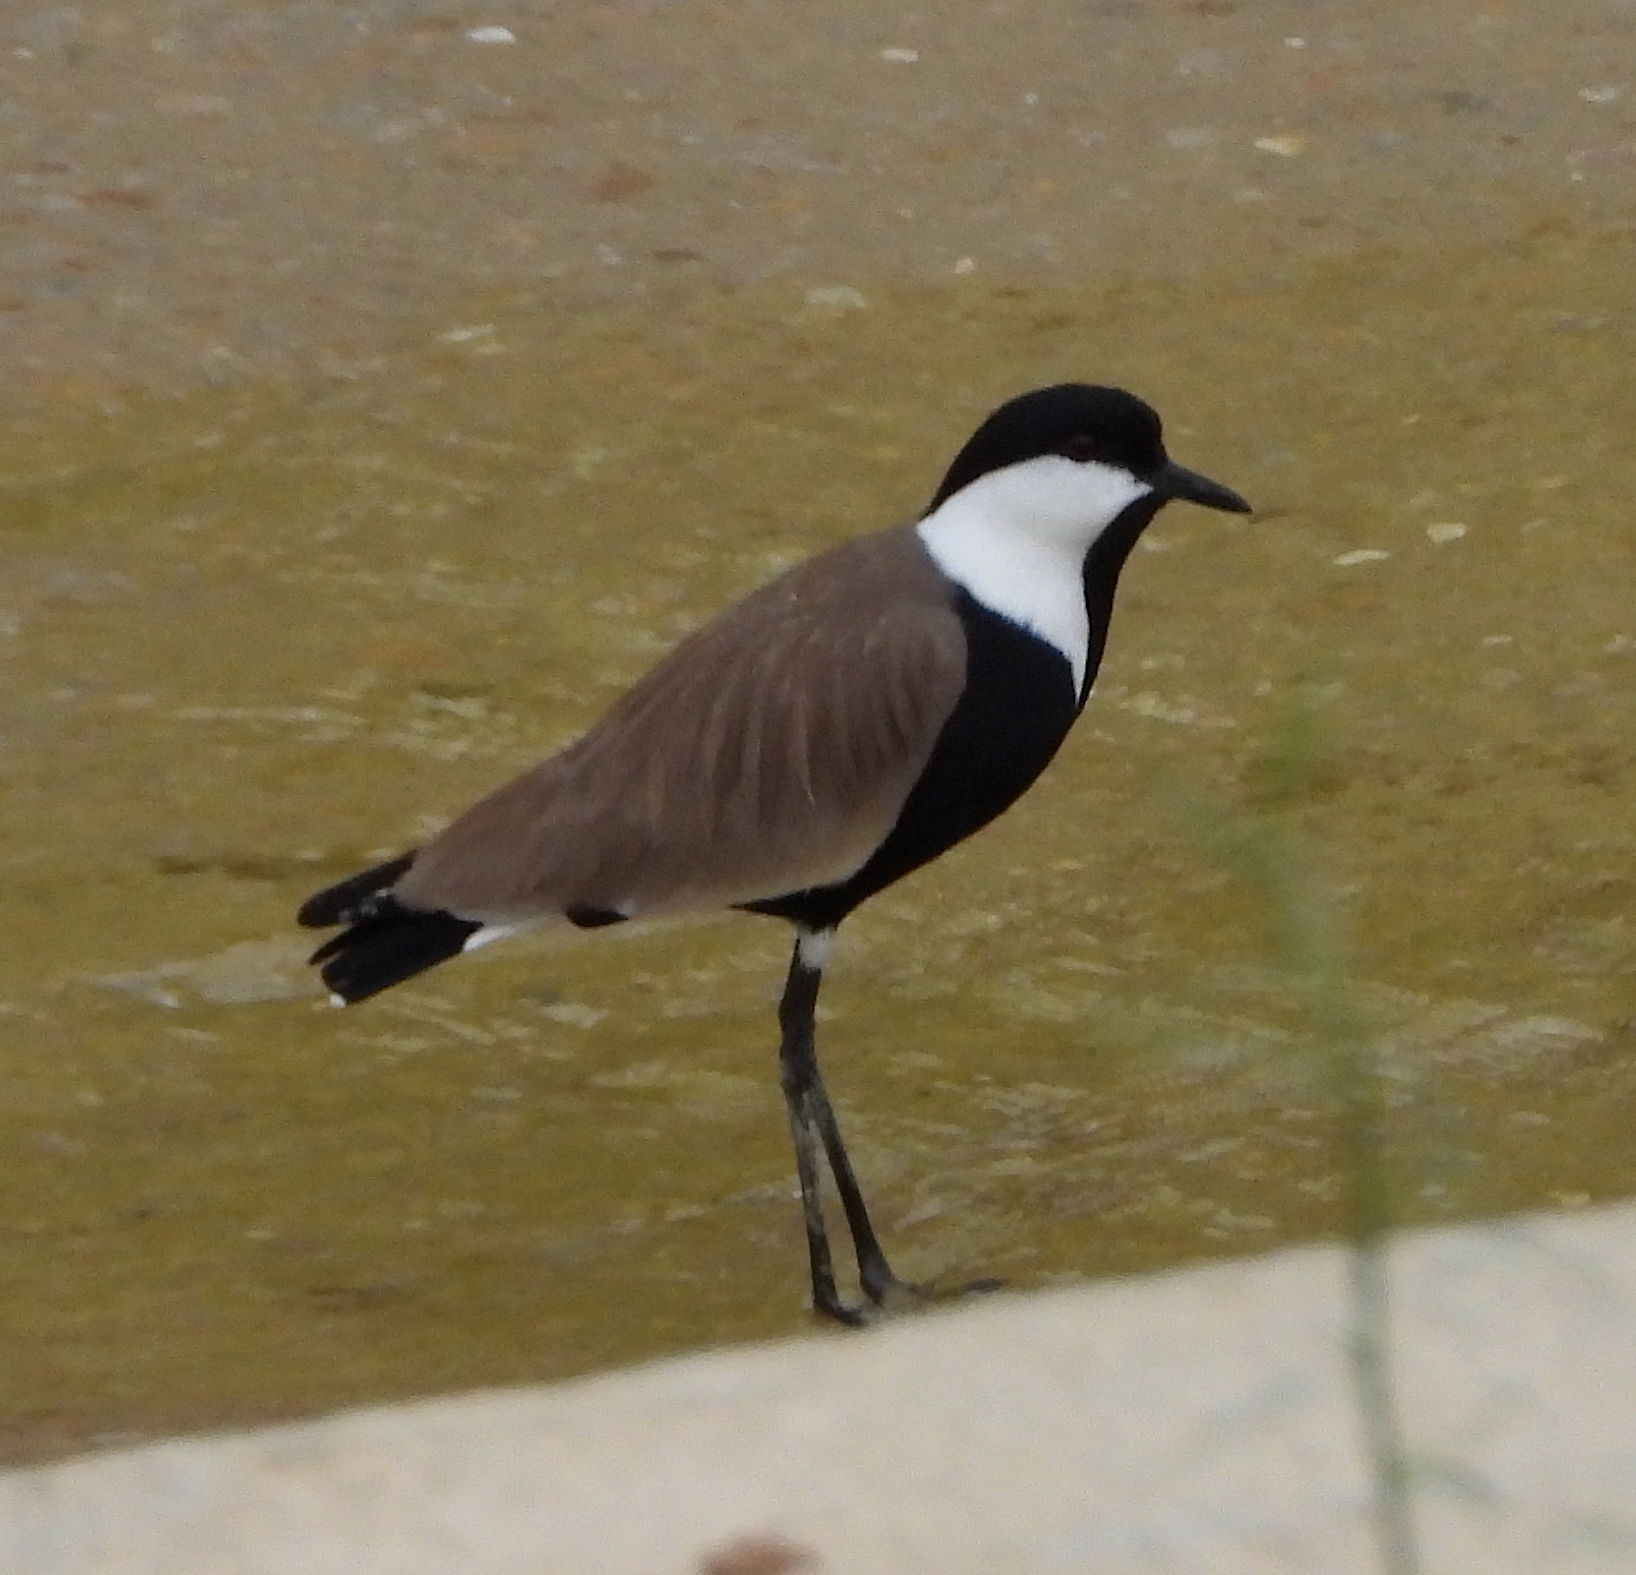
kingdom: Animalia
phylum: Chordata
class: Aves
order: Charadriiformes
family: Charadriidae
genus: Vanellus
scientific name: Vanellus spinosus
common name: Spur-winged lapwing
